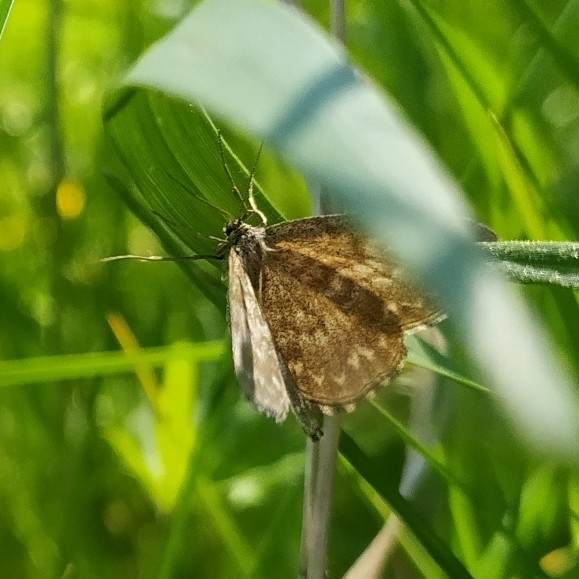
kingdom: Animalia
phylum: Arthropoda
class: Insecta
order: Lepidoptera
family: Geometridae
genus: Scopula
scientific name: Scopula immorata
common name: Lewes wave
